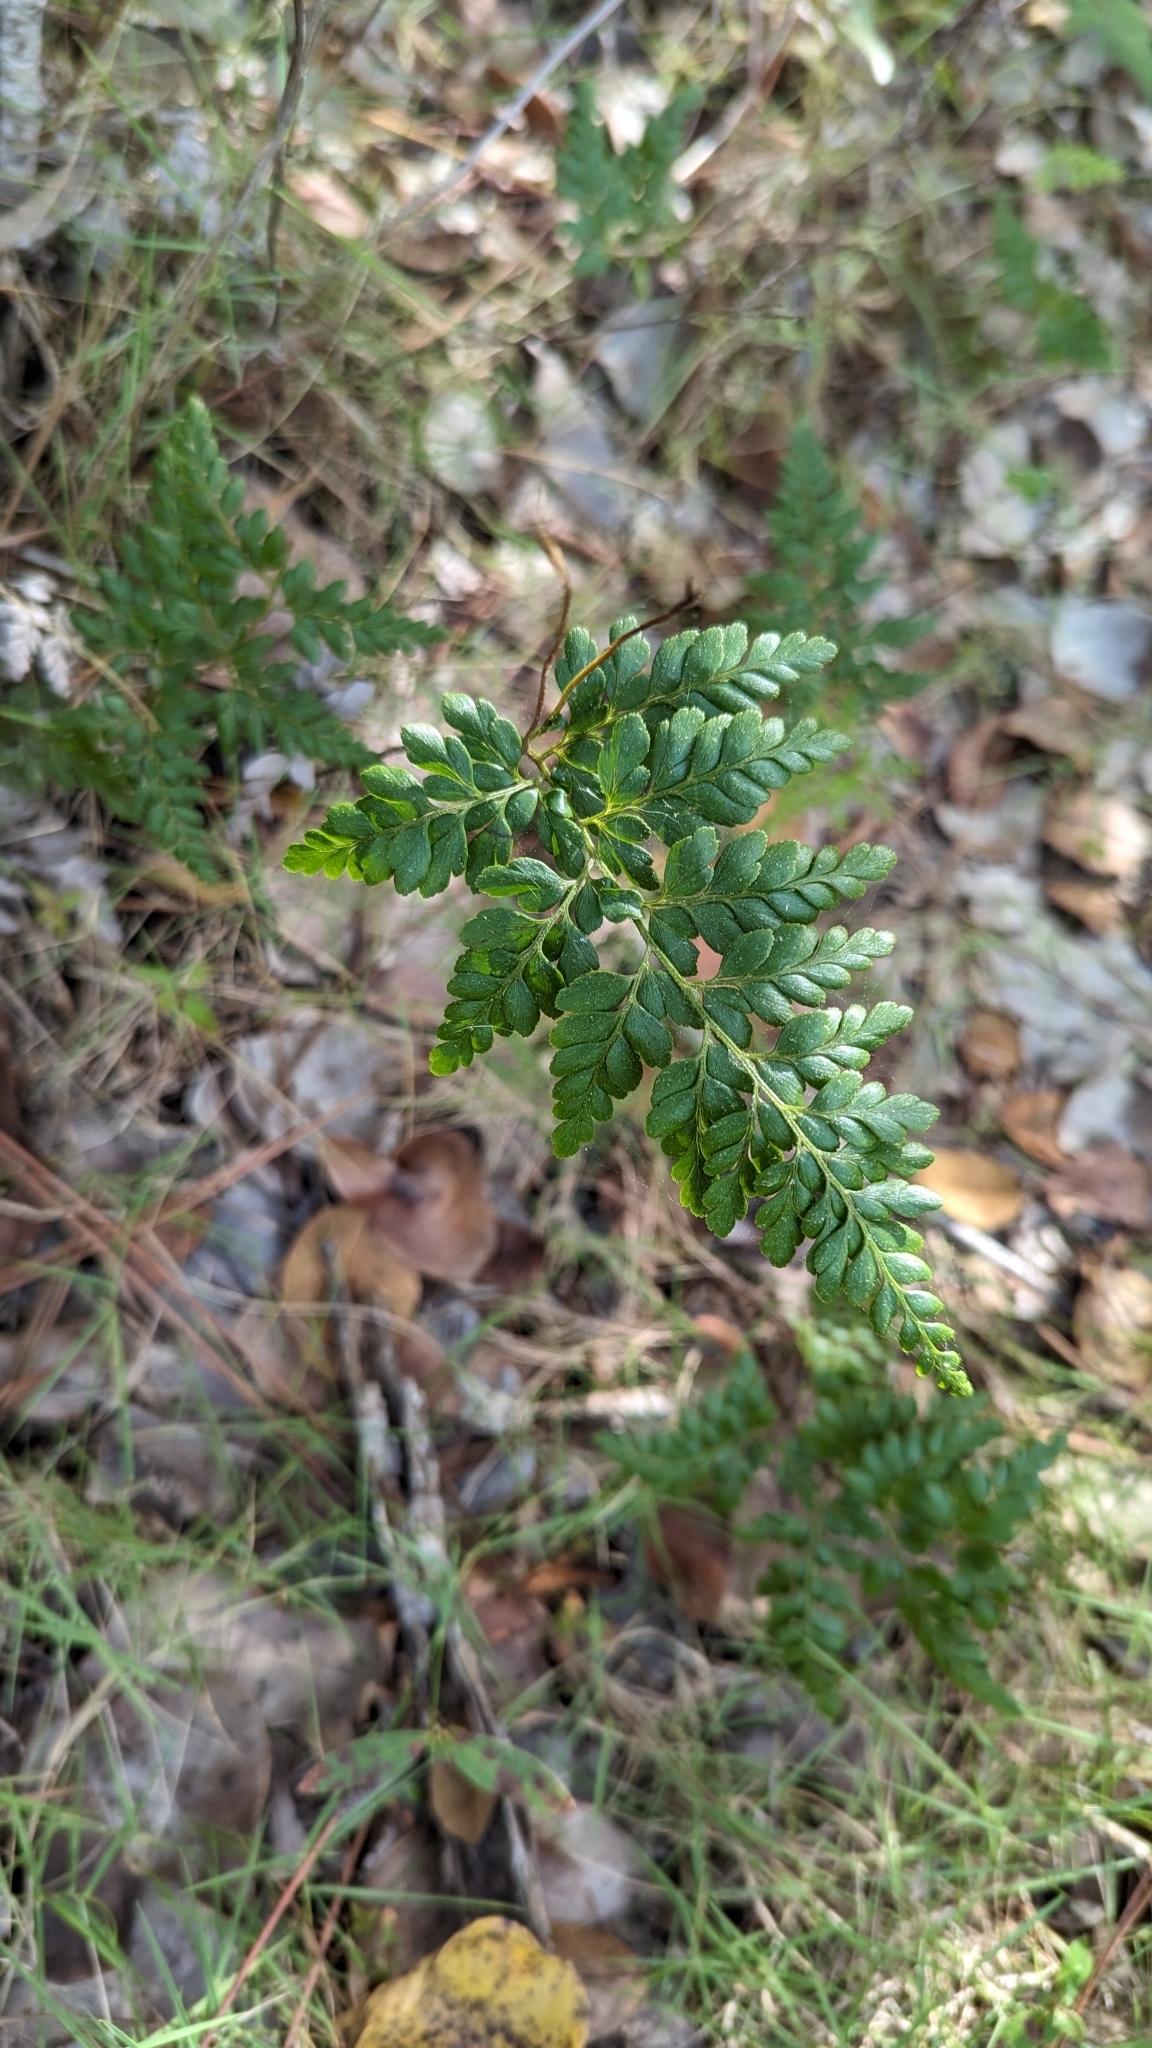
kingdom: Plantae
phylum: Tracheophyta
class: Polypodiopsida
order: Schizaeales
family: Anemiaceae
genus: Anemia
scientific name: Anemia adiantifolia
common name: Pine fern
